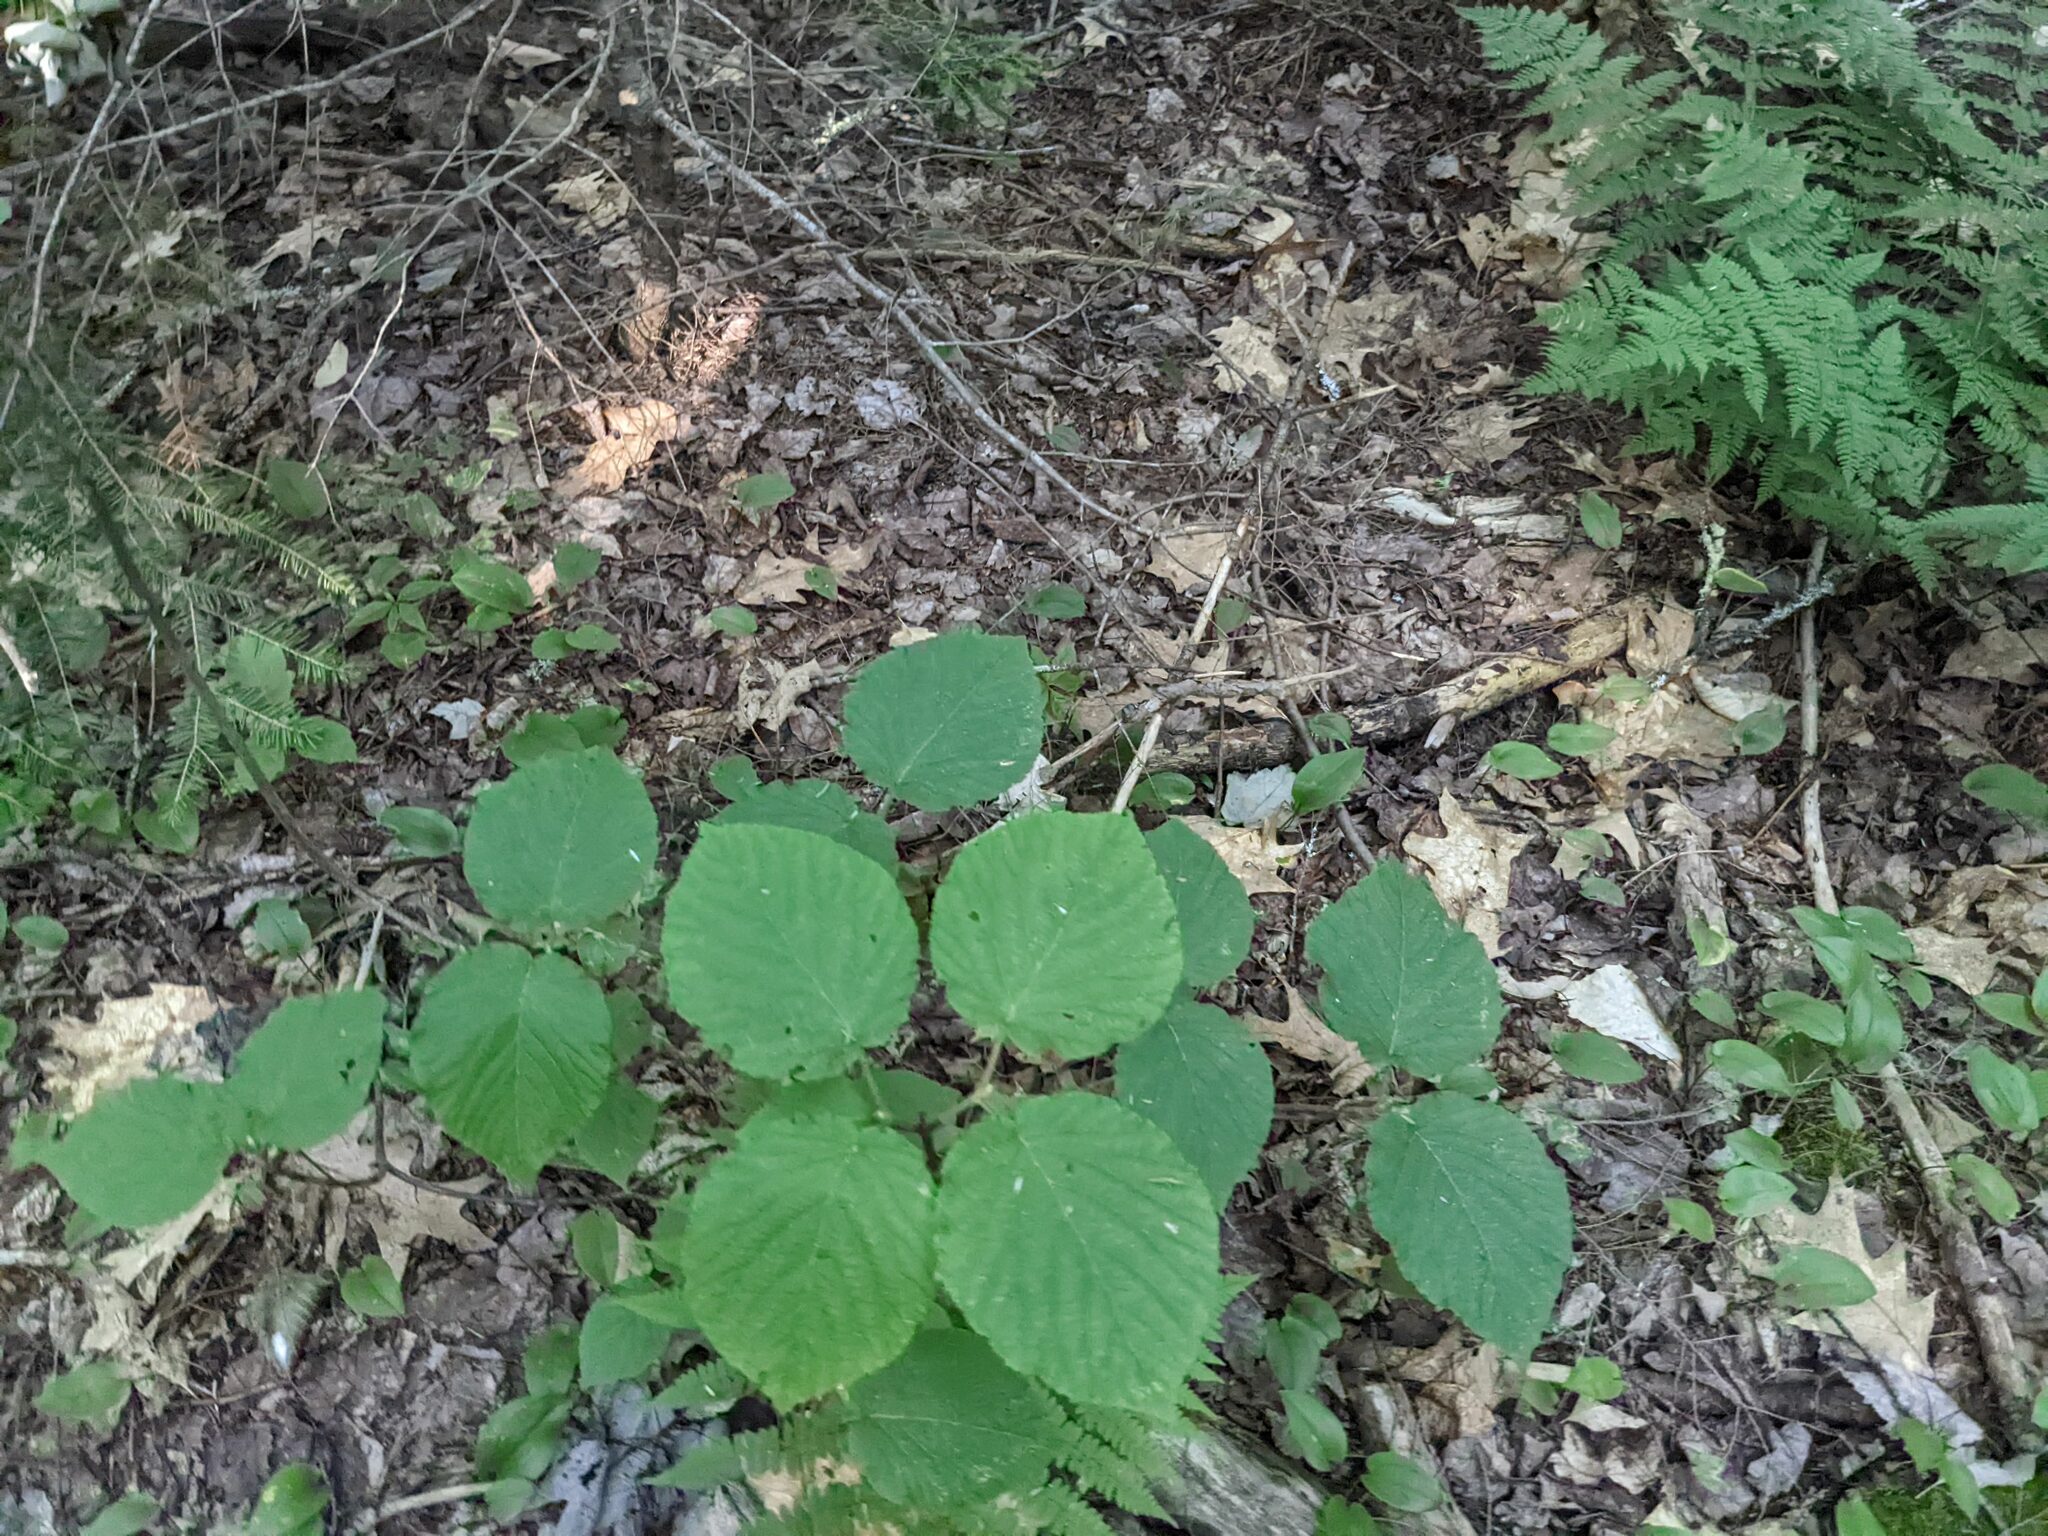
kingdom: Plantae
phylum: Tracheophyta
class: Magnoliopsida
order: Dipsacales
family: Viburnaceae
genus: Viburnum
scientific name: Viburnum lantanoides
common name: Hobblebush
